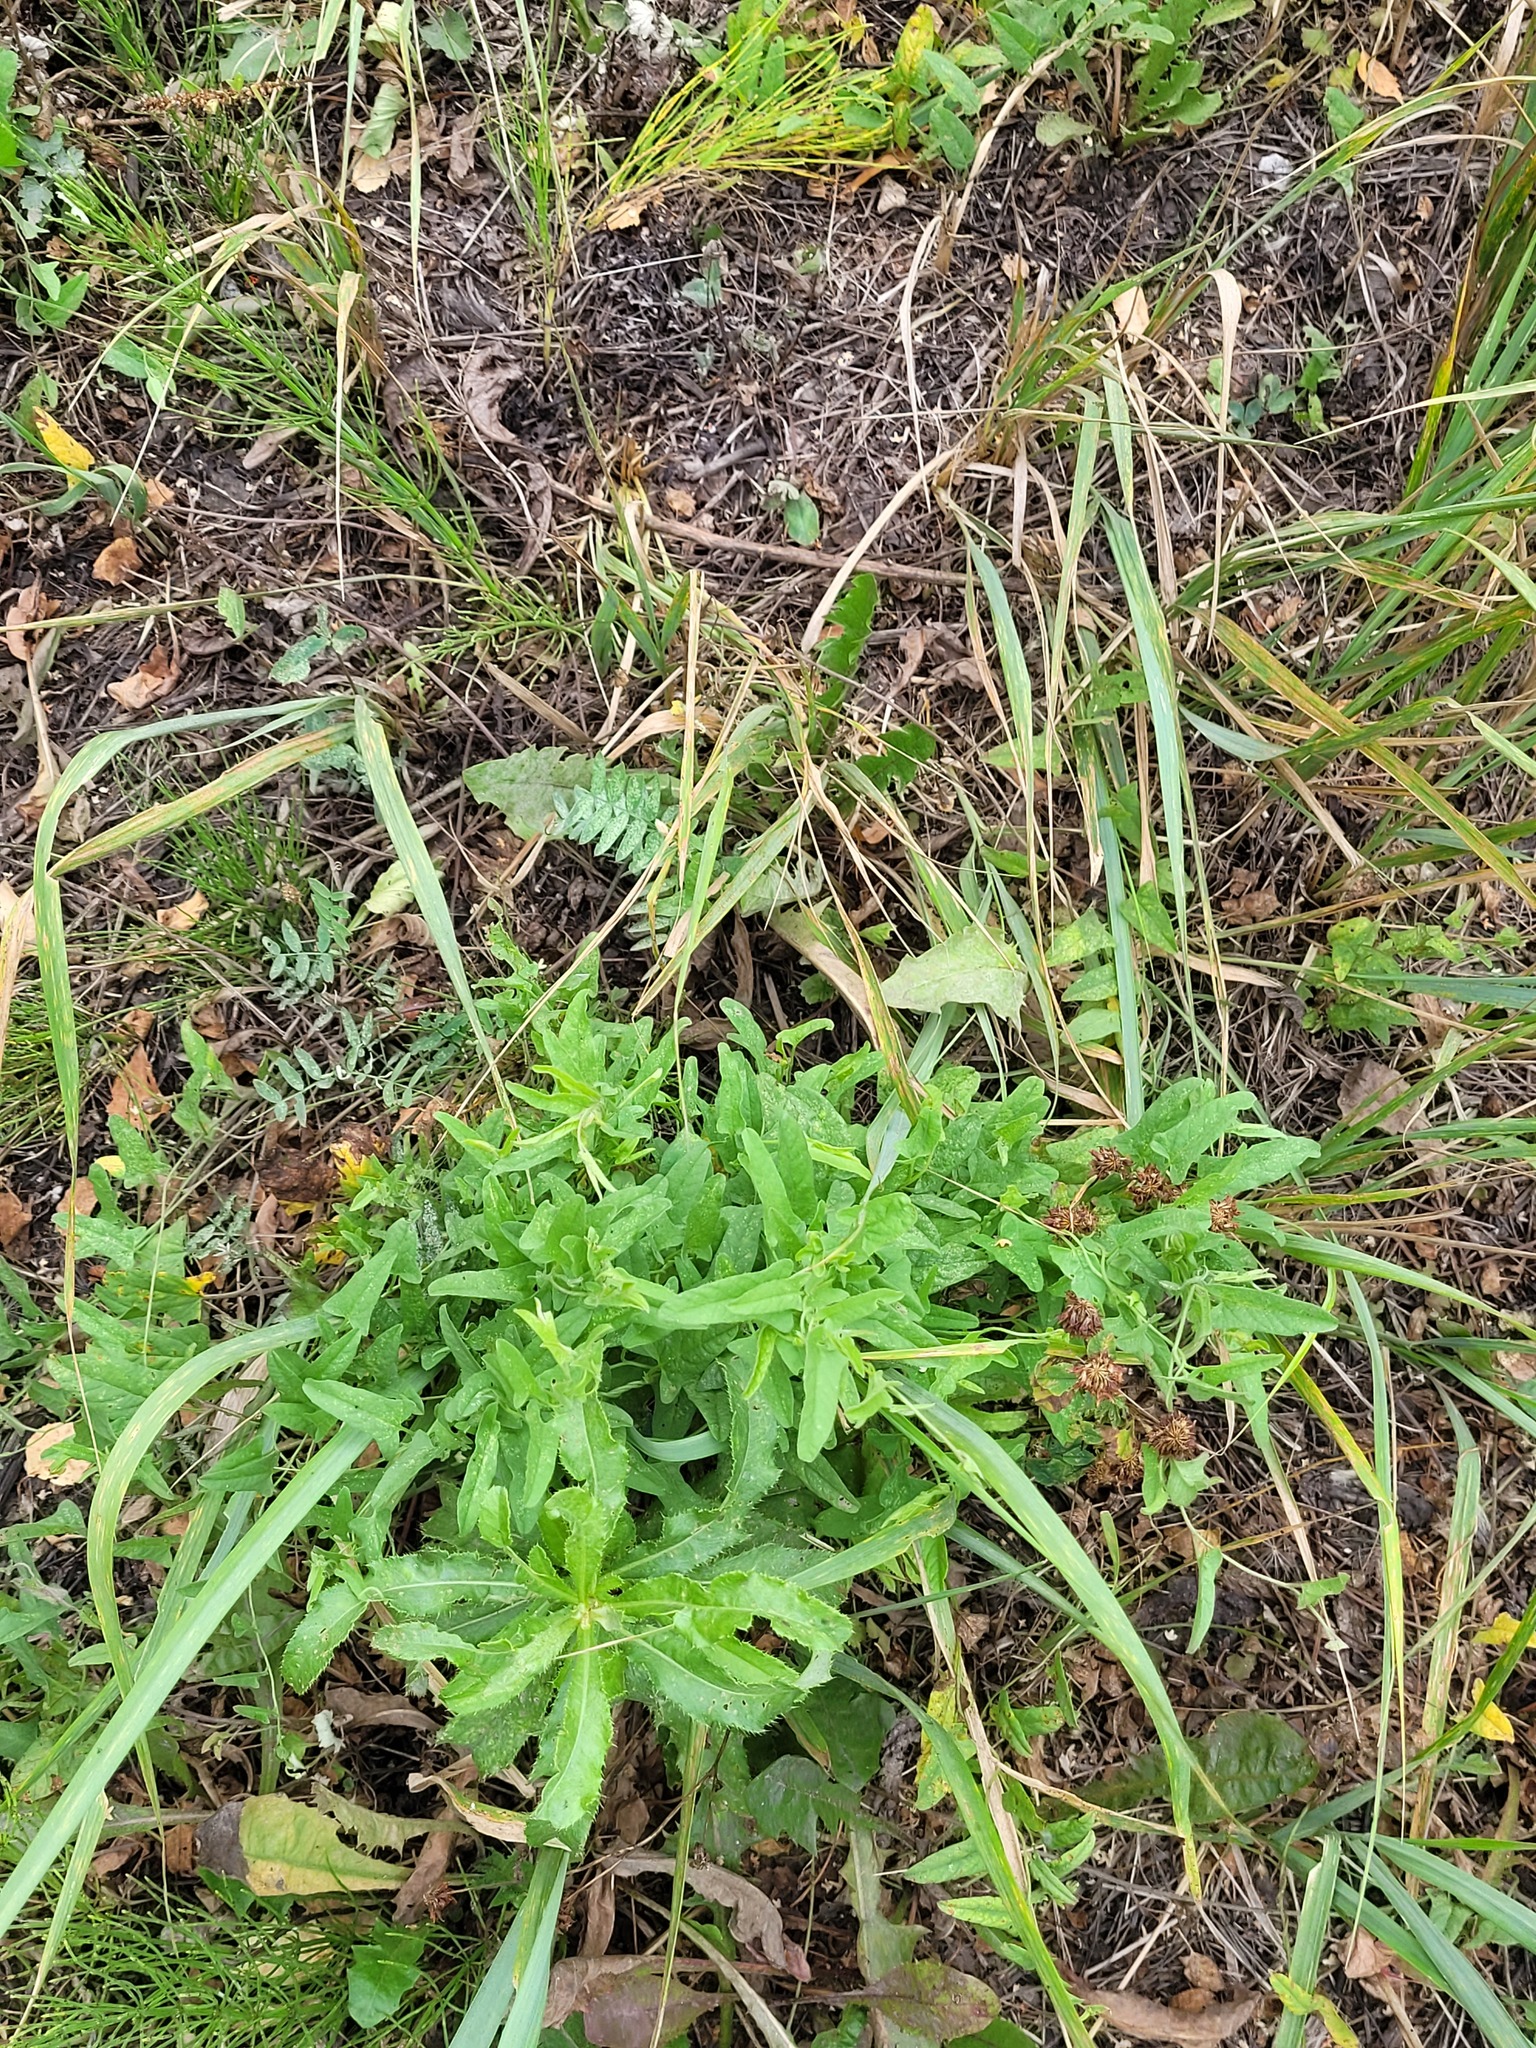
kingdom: Plantae
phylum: Tracheophyta
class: Magnoliopsida
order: Solanales
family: Convolvulaceae
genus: Convolvulus
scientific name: Convolvulus arvensis
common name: Field bindweed
